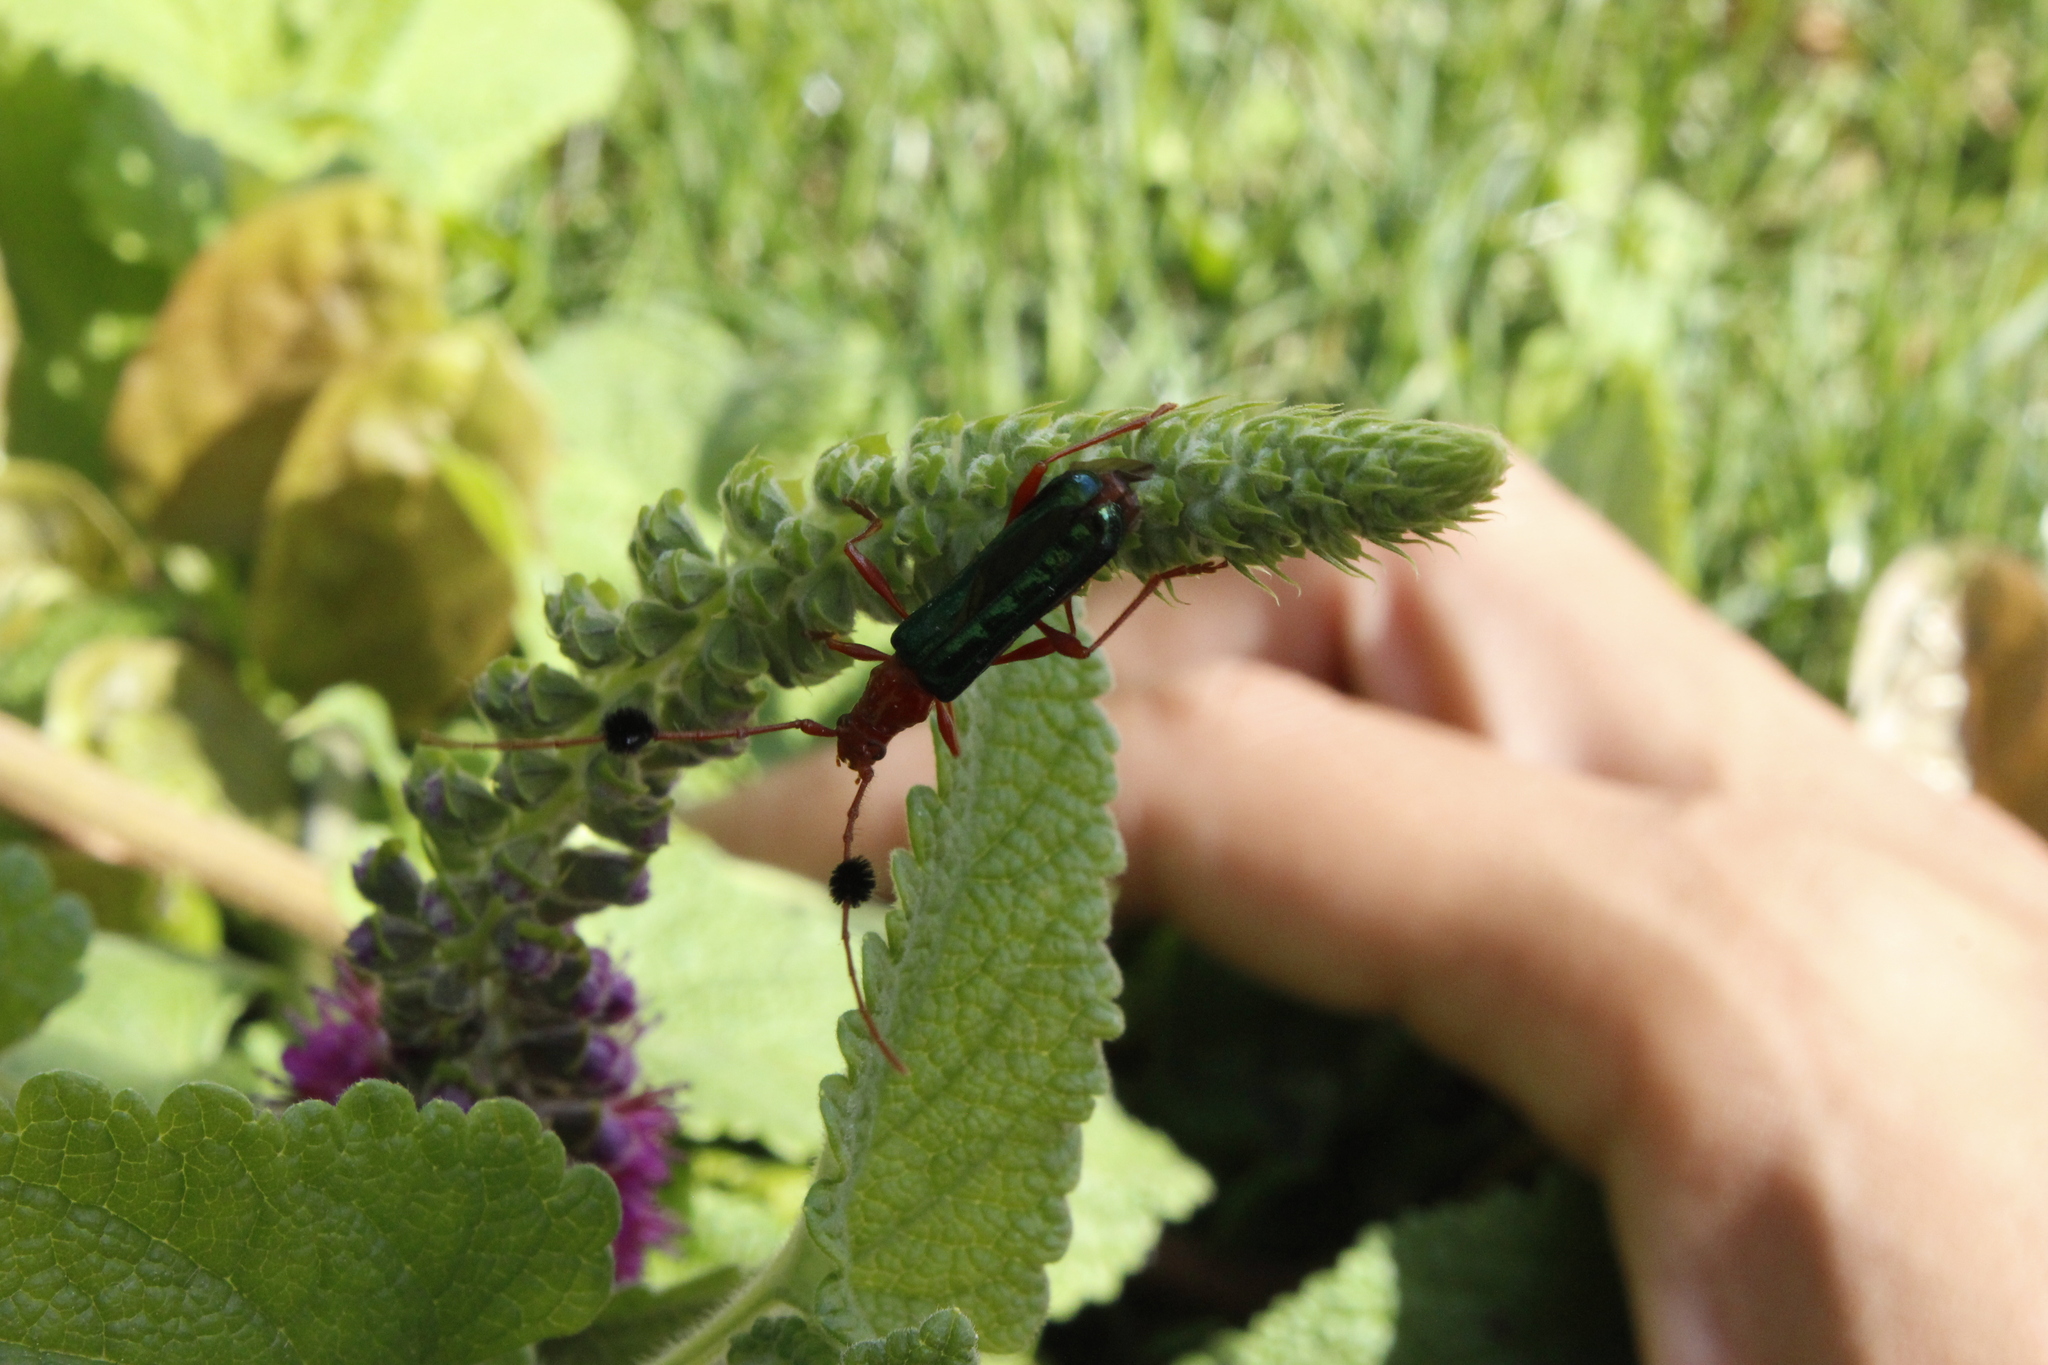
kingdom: Animalia
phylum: Arthropoda
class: Insecta
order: Coleoptera
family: Cerambycidae
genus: Paromoeocerus
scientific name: Paromoeocerus barbicornis
